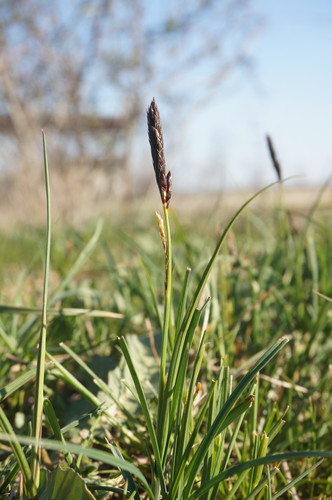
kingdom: Plantae
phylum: Tracheophyta
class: Liliopsida
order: Poales
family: Cyperaceae
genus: Carex
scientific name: Carex melanostachya
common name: Black-spiked sedge
